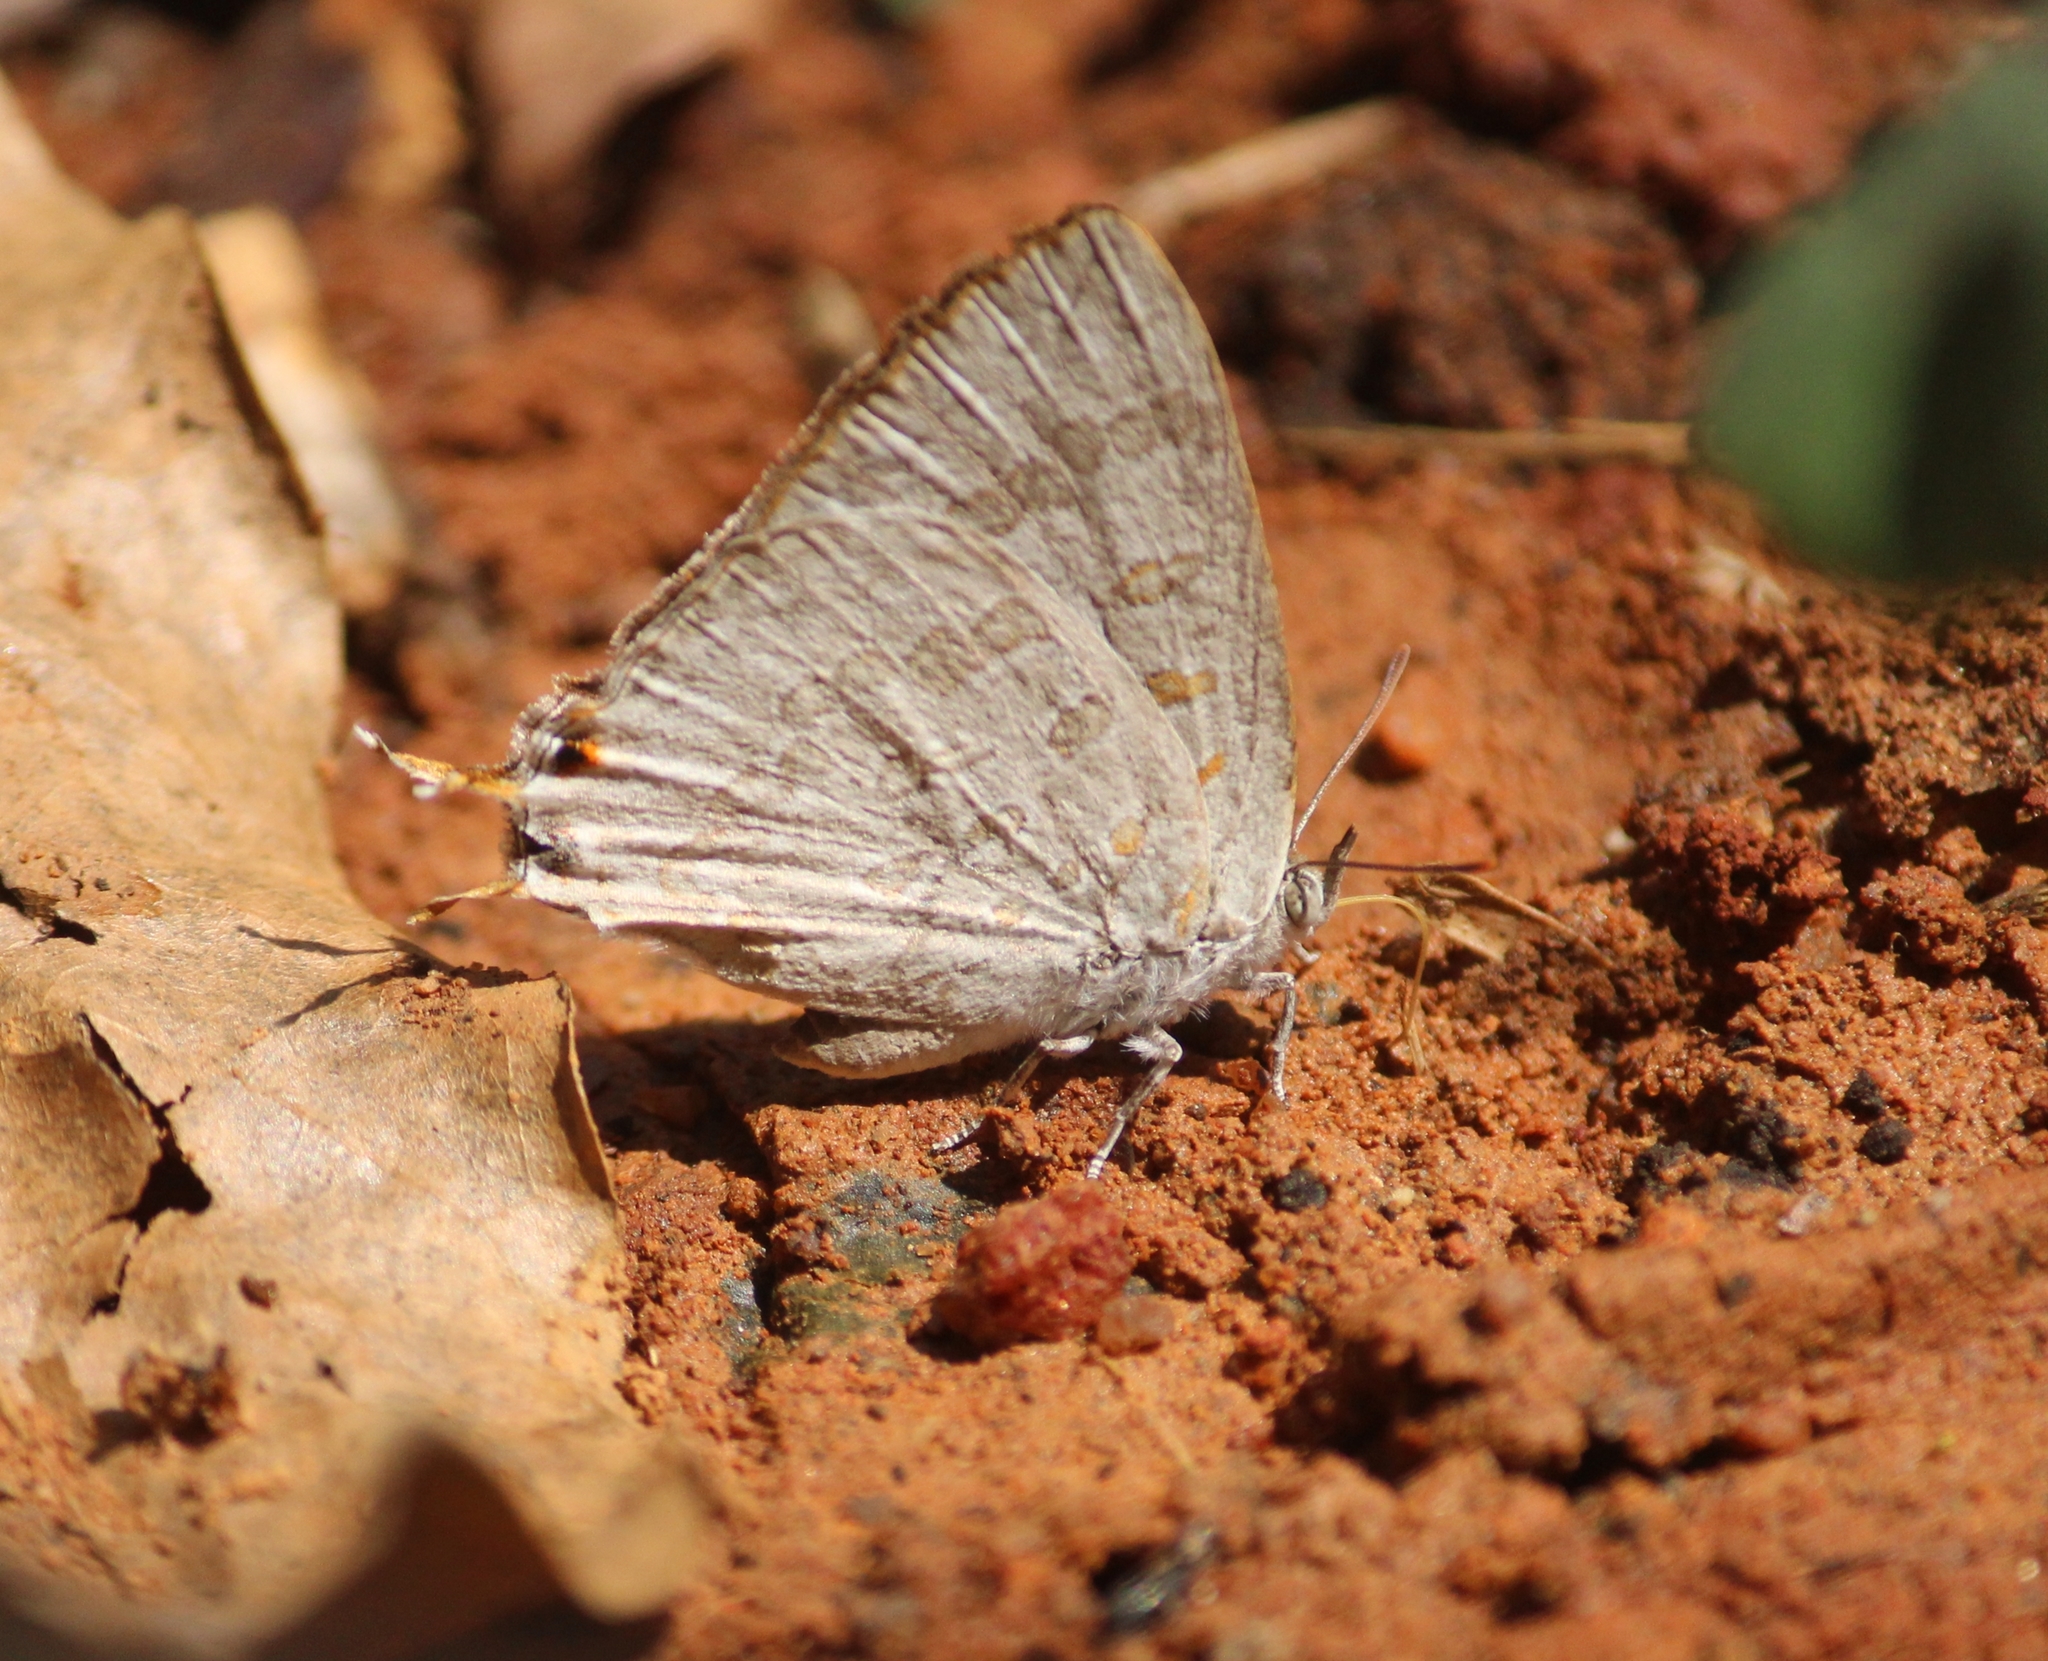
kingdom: Animalia
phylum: Arthropoda
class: Insecta
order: Lepidoptera
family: Lycaenidae
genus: Zesius
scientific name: Zesius chrysomallus
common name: Redspot
